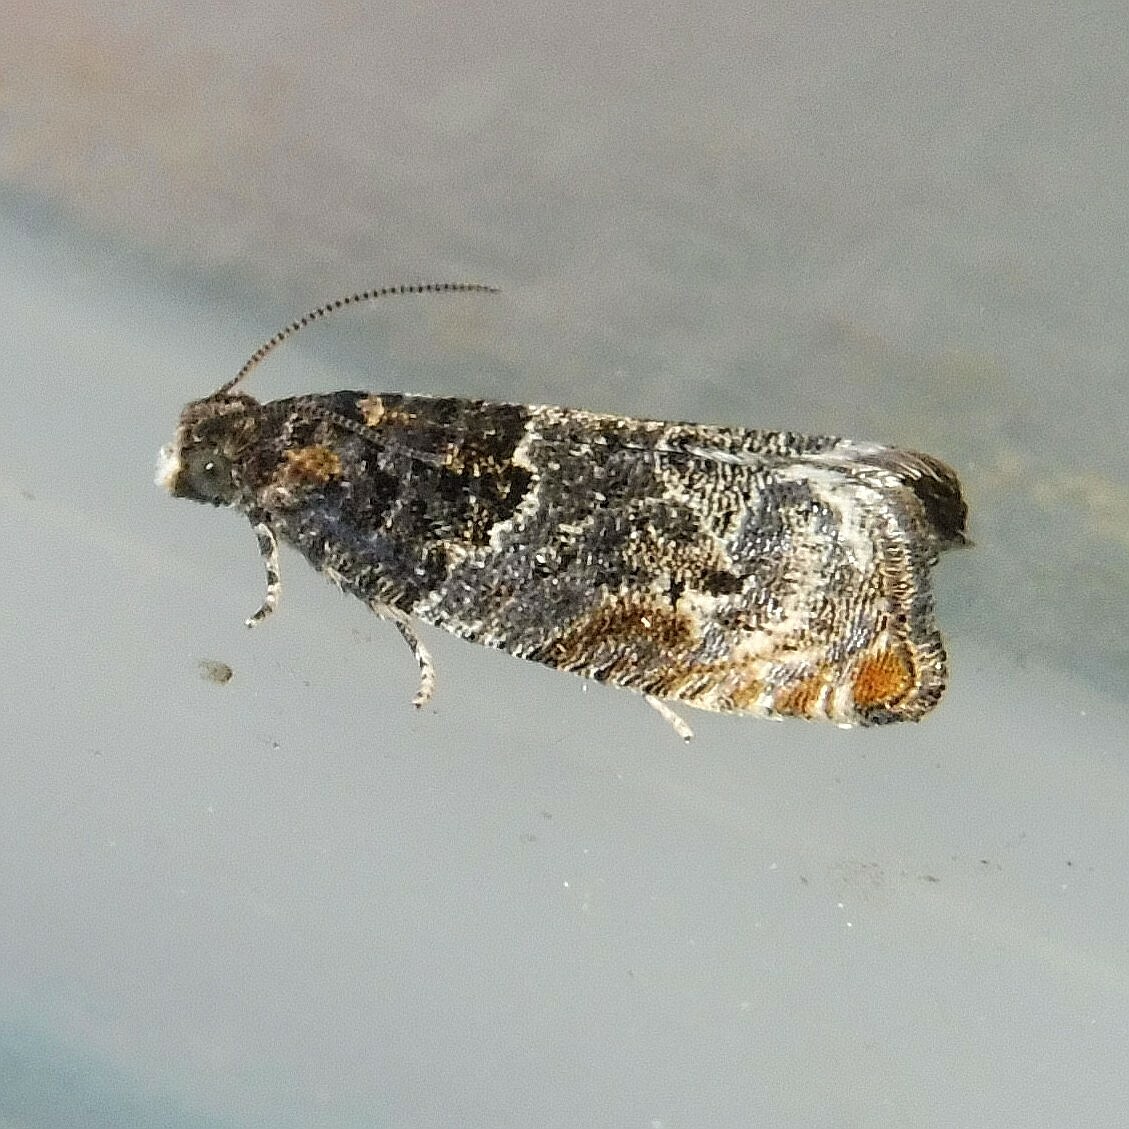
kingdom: Animalia
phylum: Arthropoda
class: Insecta
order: Lepidoptera
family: Tortricidae
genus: Gypsonoma
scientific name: Gypsonoma dealbana
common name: Common cloaked shoot
